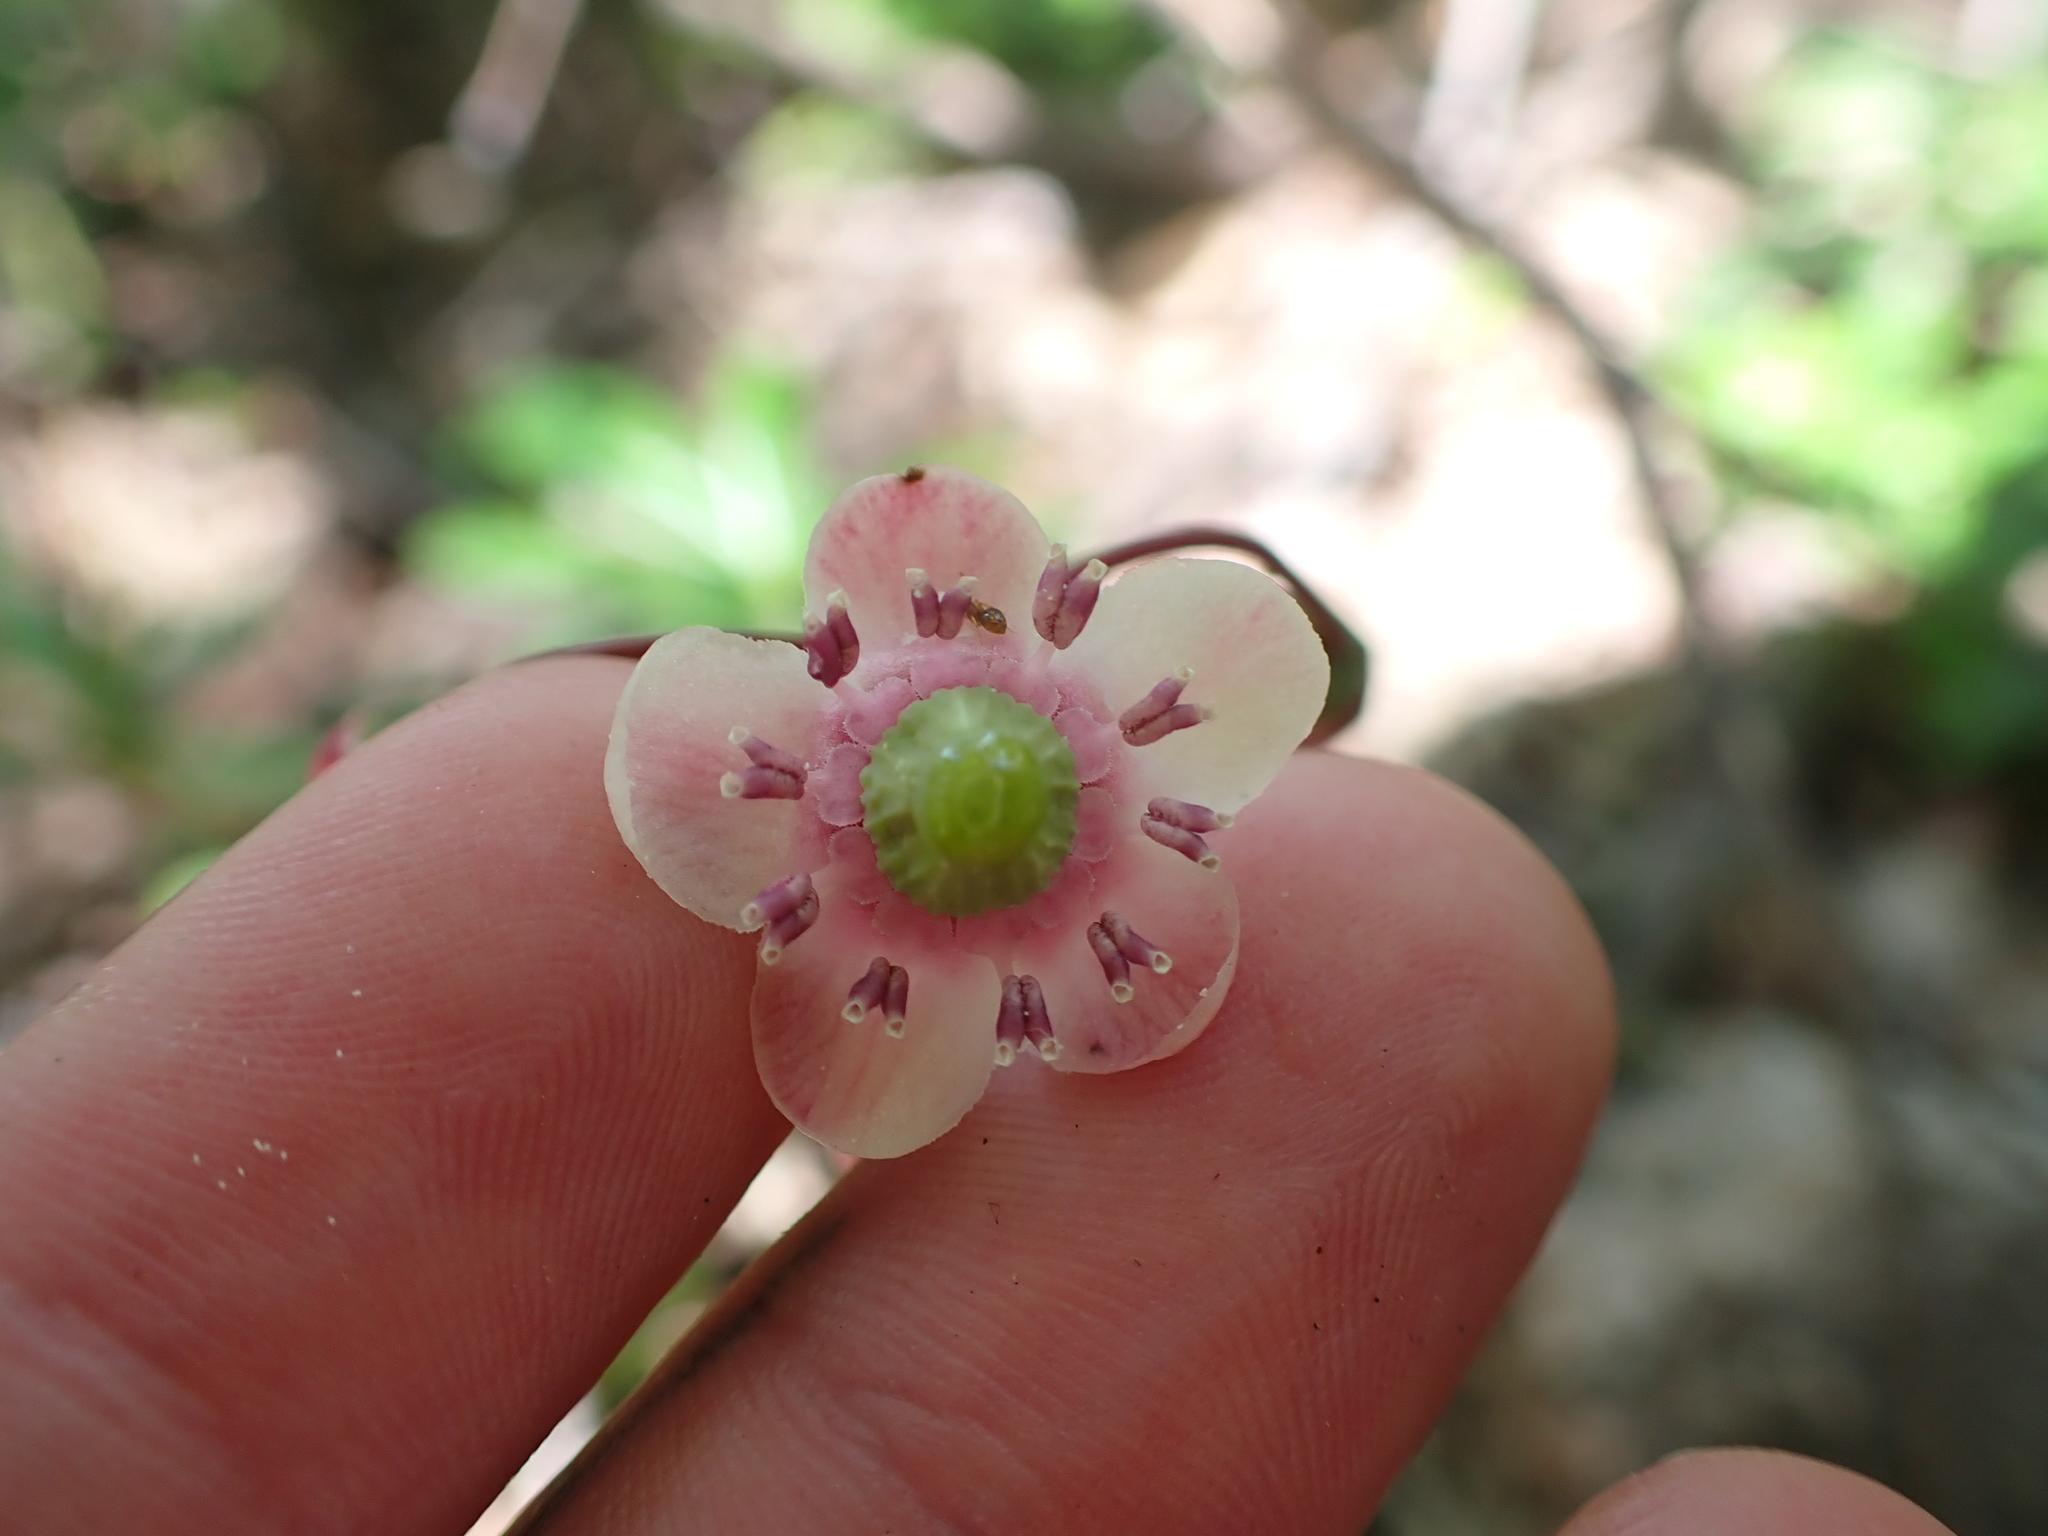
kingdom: Plantae
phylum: Tracheophyta
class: Magnoliopsida
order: Ericales
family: Ericaceae
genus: Chimaphila
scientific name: Chimaphila umbellata
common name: Pipsissewa
